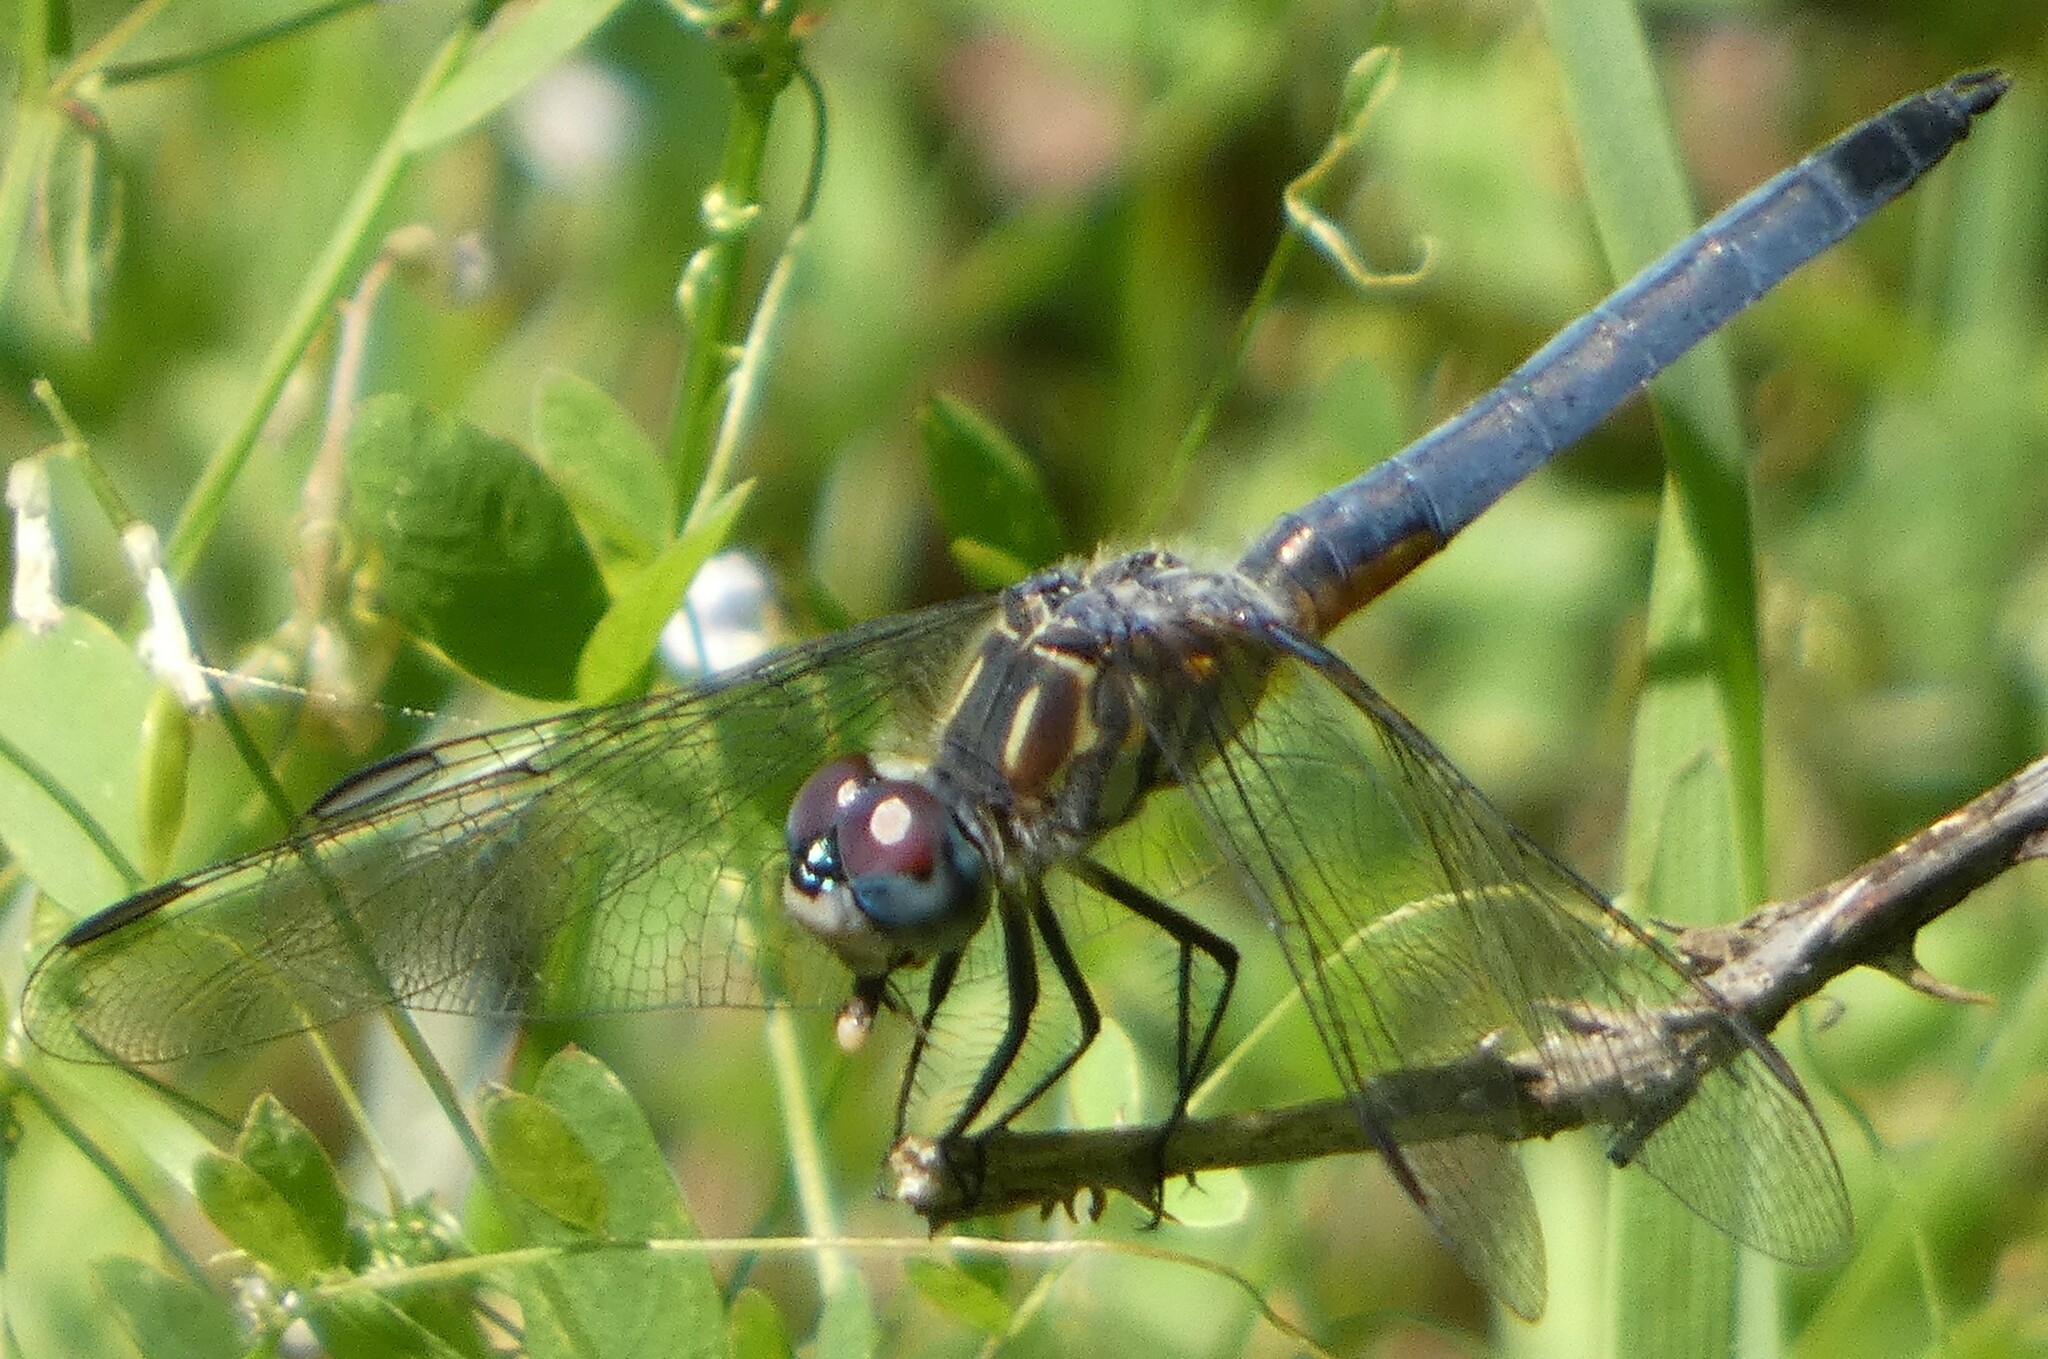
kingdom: Animalia
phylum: Arthropoda
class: Insecta
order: Odonata
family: Libellulidae
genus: Pachydiplax
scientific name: Pachydiplax longipennis
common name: Blue dasher
